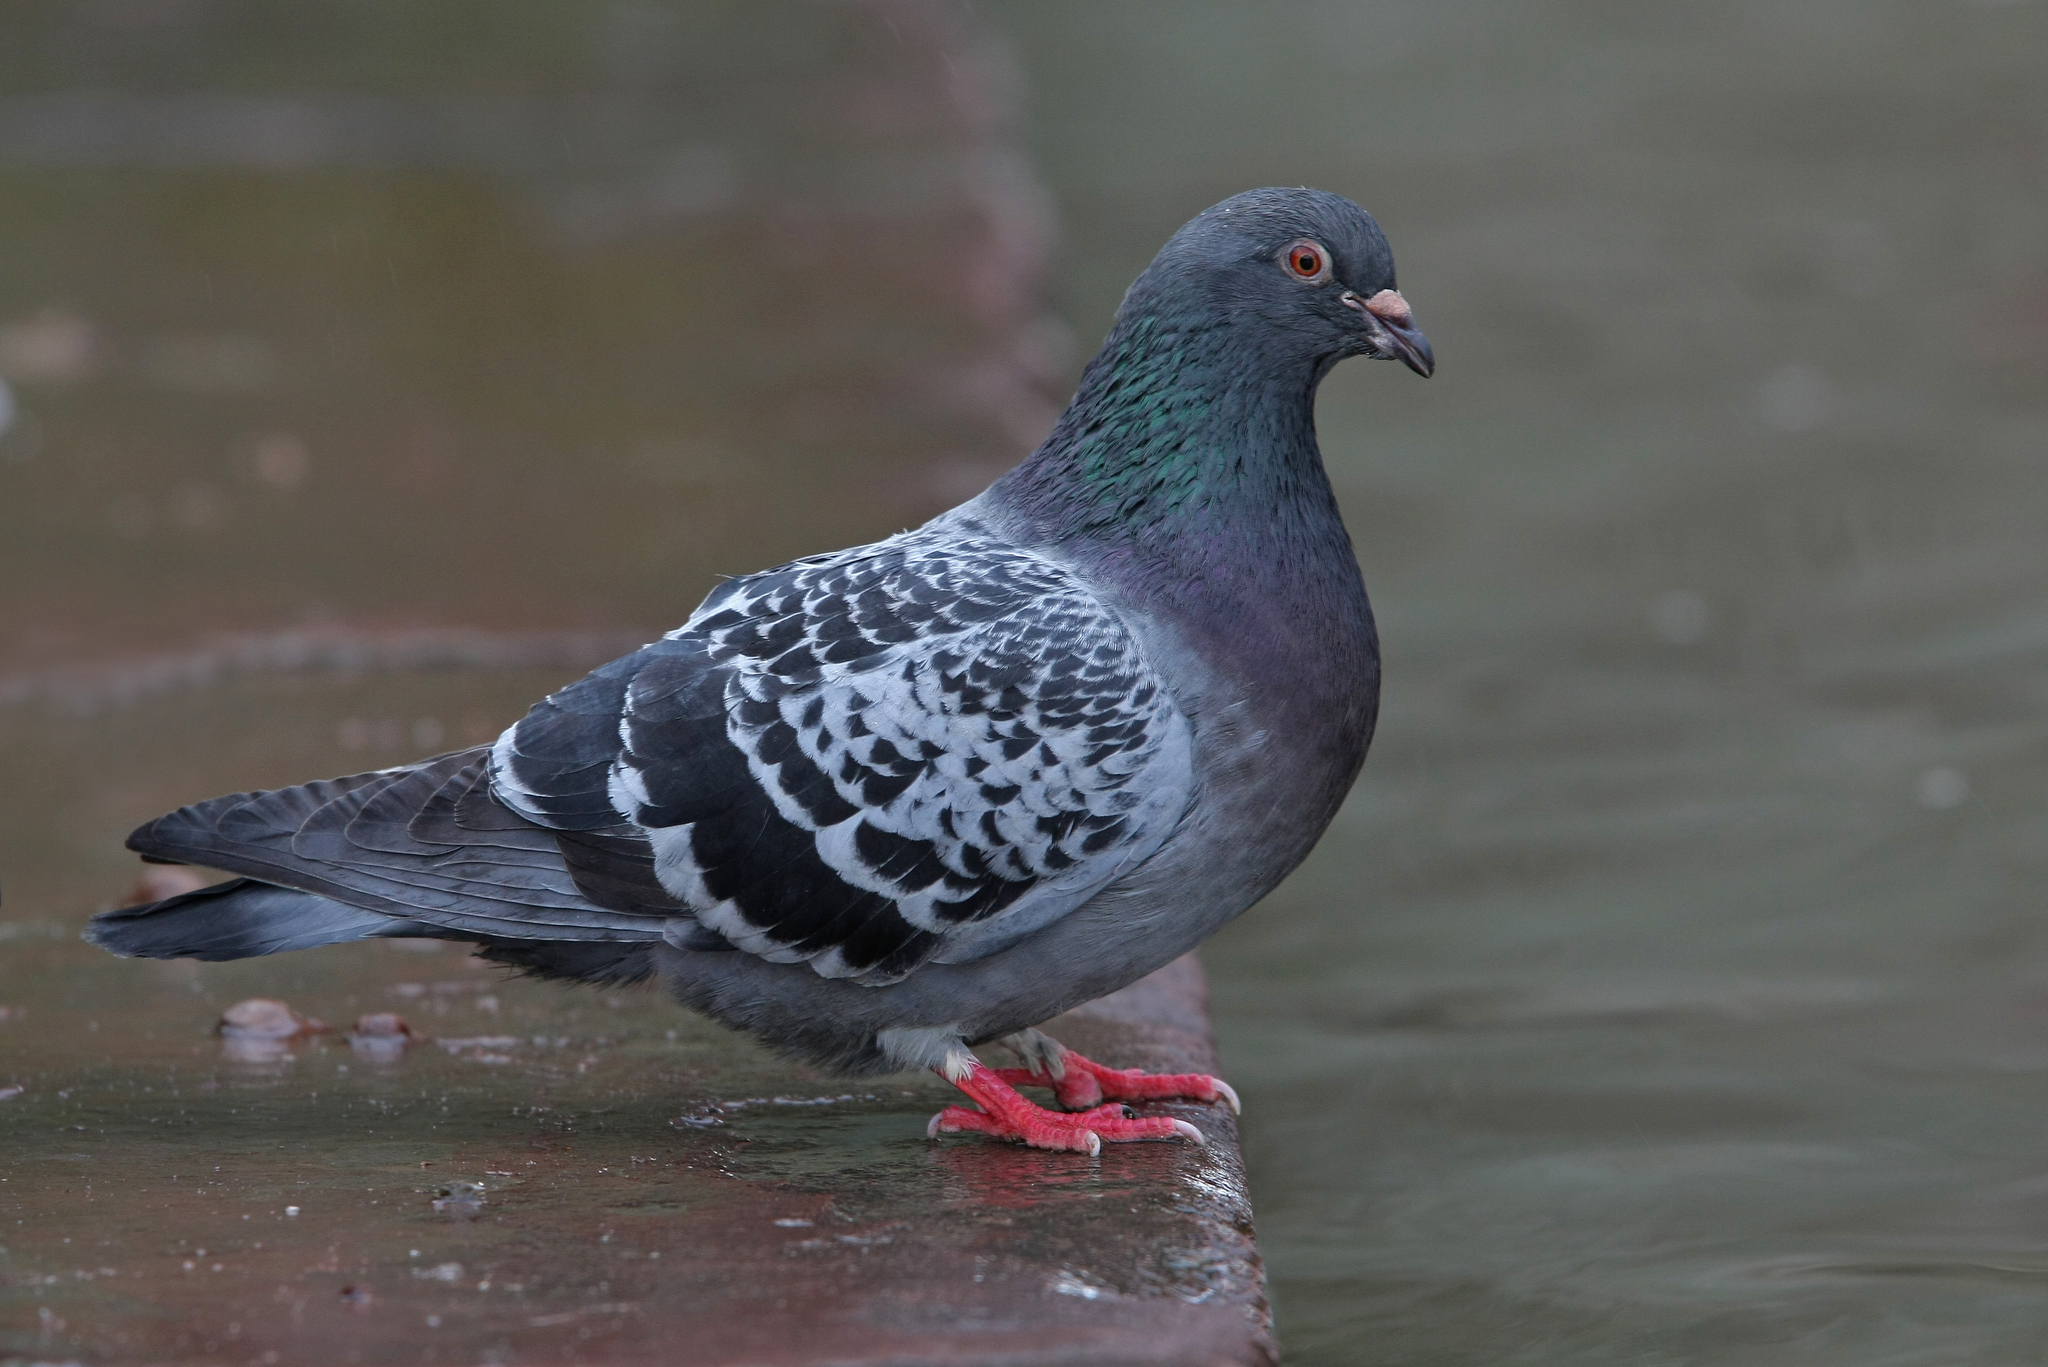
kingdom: Animalia
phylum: Chordata
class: Aves
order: Columbiformes
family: Columbidae
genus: Columba
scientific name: Columba livia
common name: Rock pigeon
